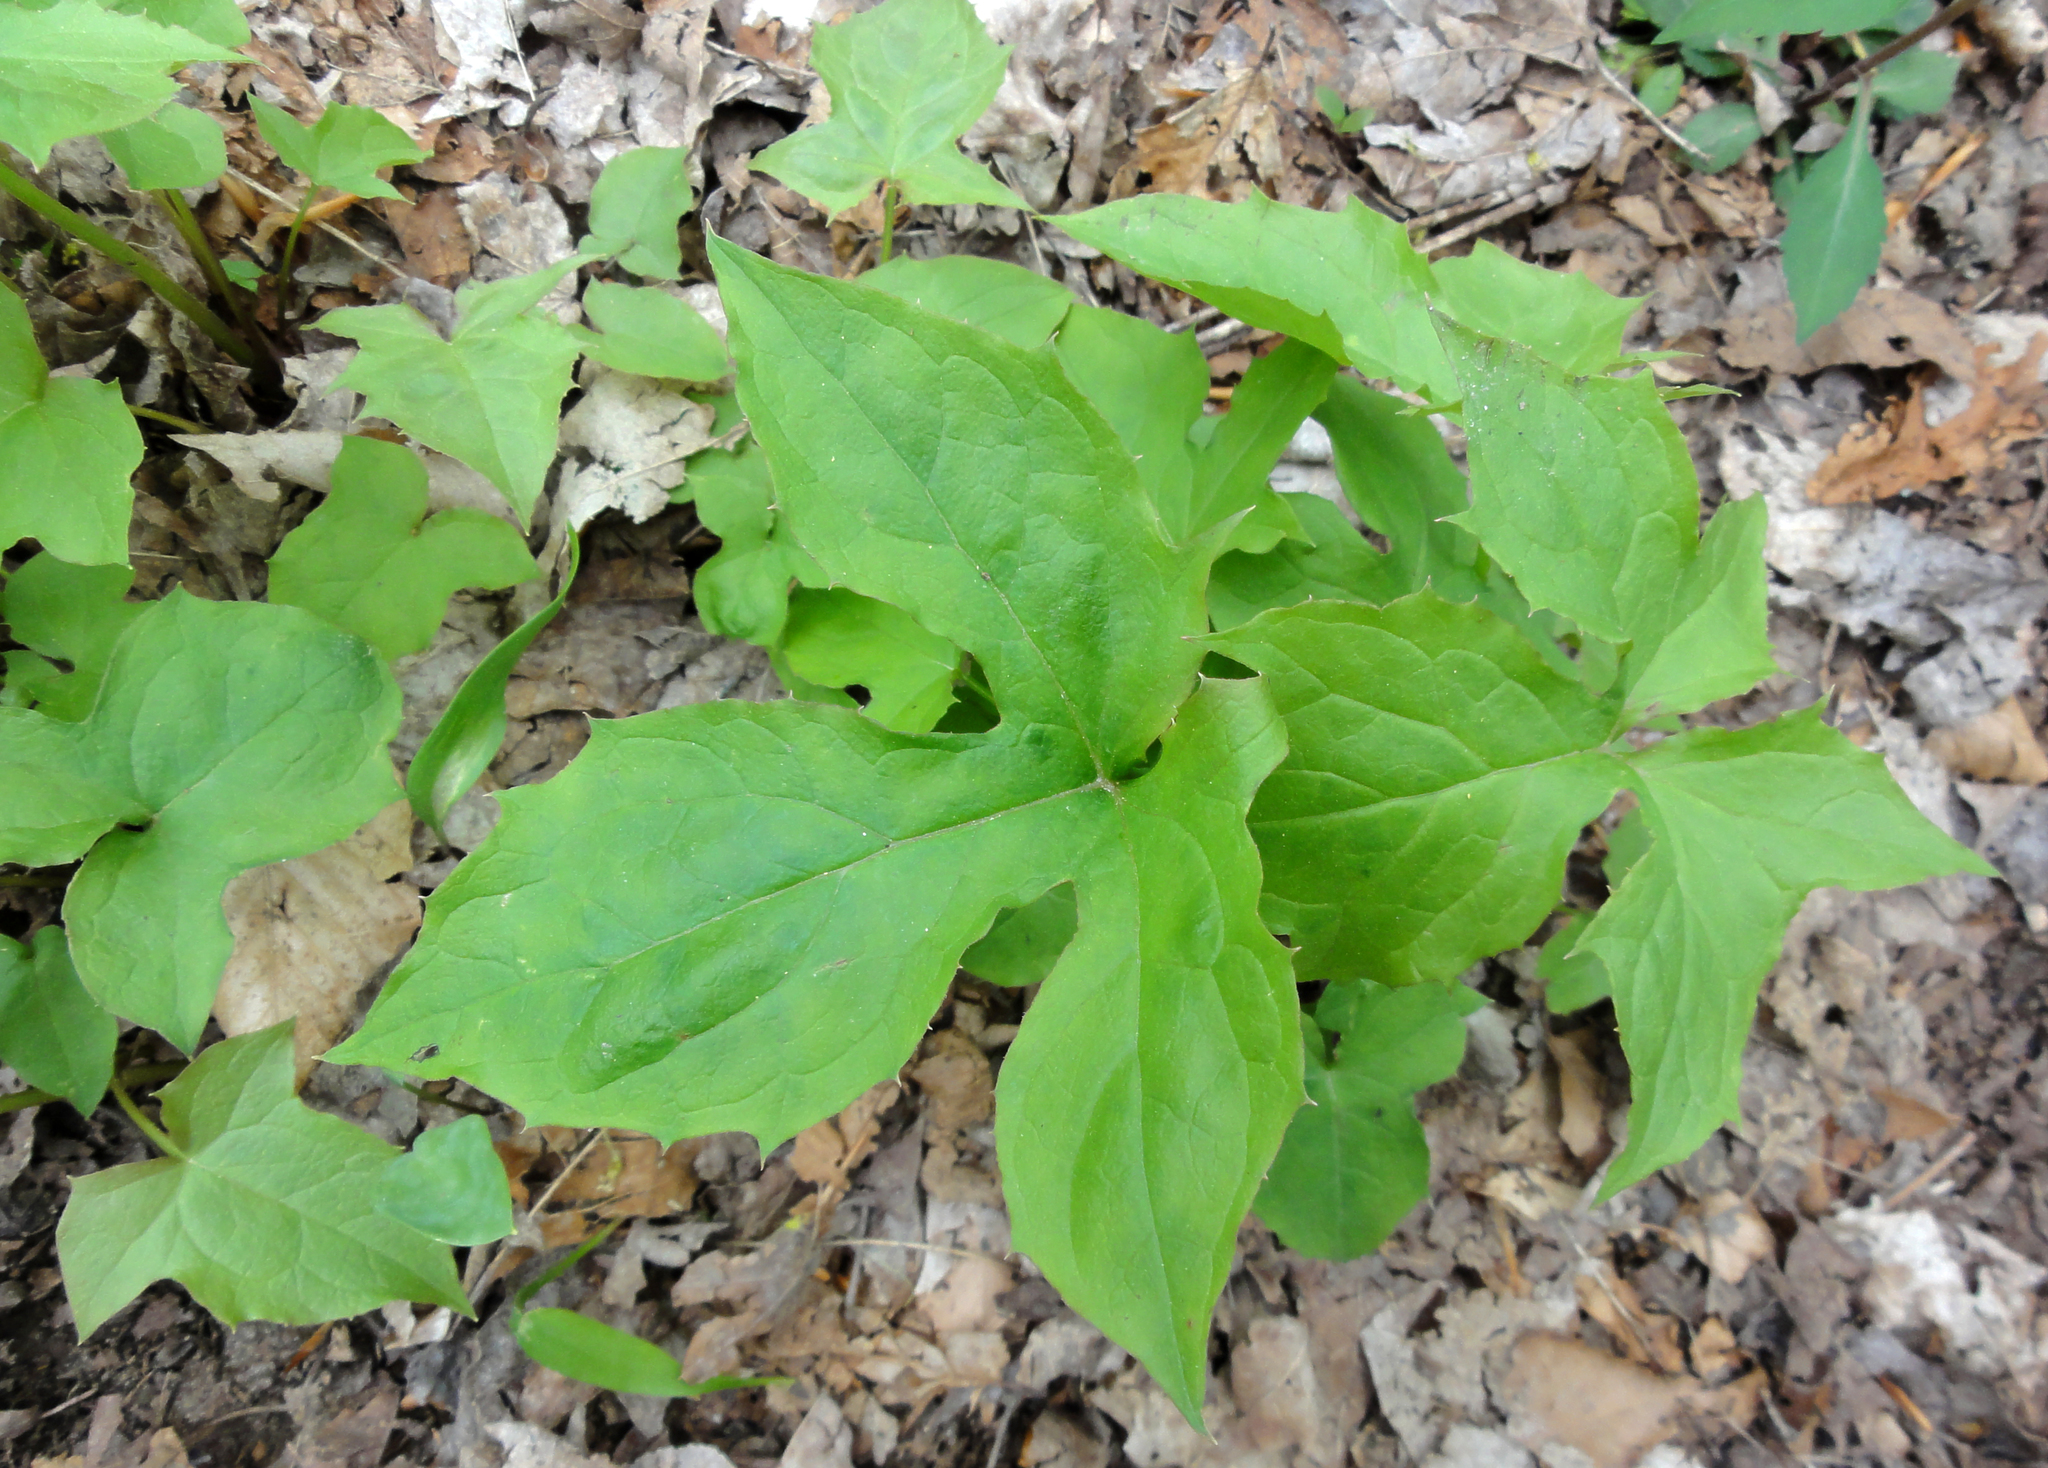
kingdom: Plantae
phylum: Tracheophyta
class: Magnoliopsida
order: Asterales
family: Asteraceae
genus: Nabalus
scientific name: Nabalus
